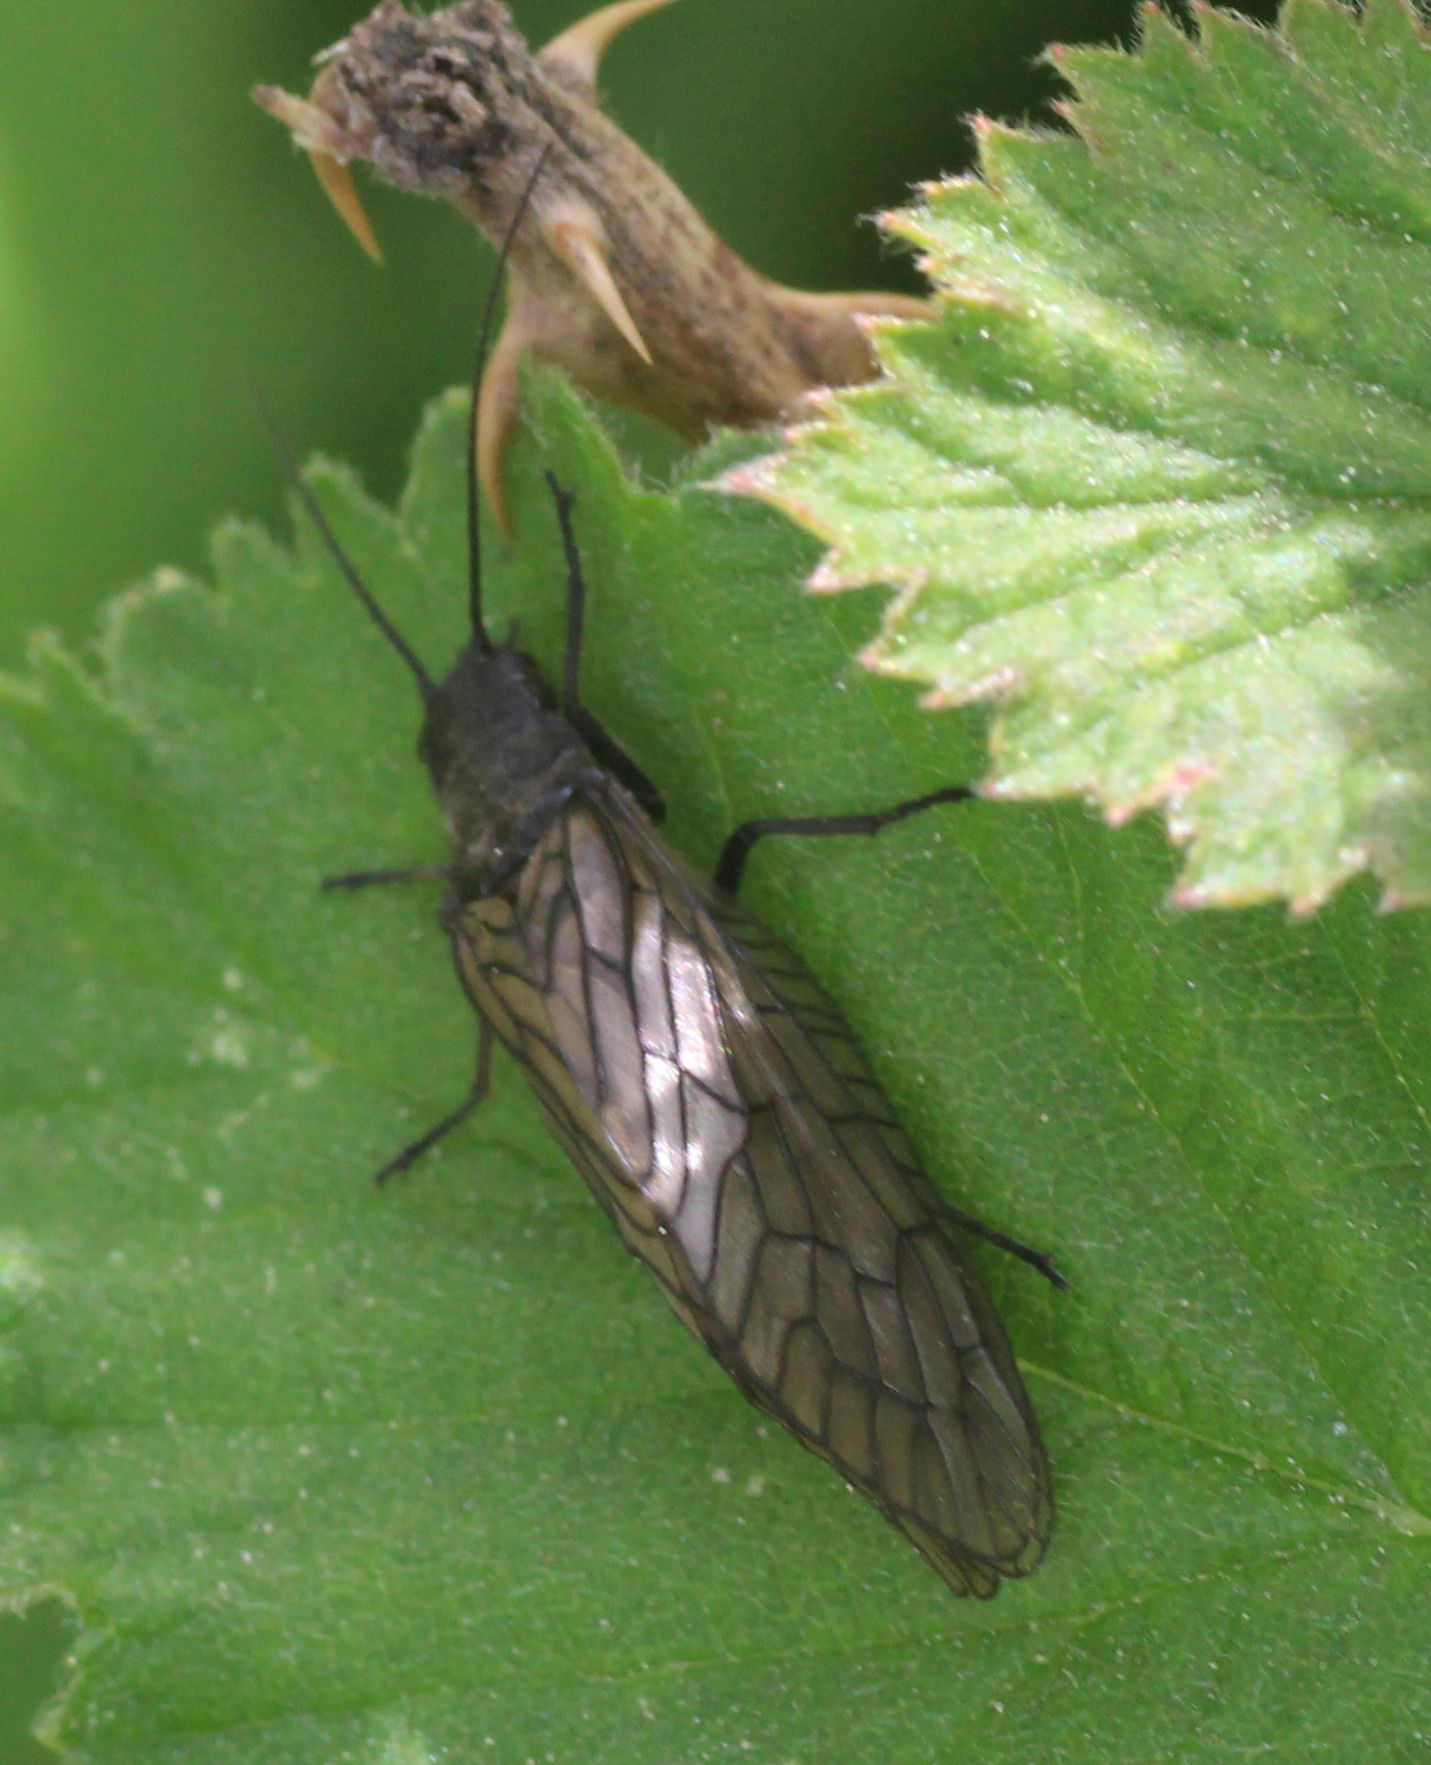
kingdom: Animalia
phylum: Arthropoda
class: Insecta
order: Megaloptera
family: Sialidae
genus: Sialis
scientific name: Sialis
